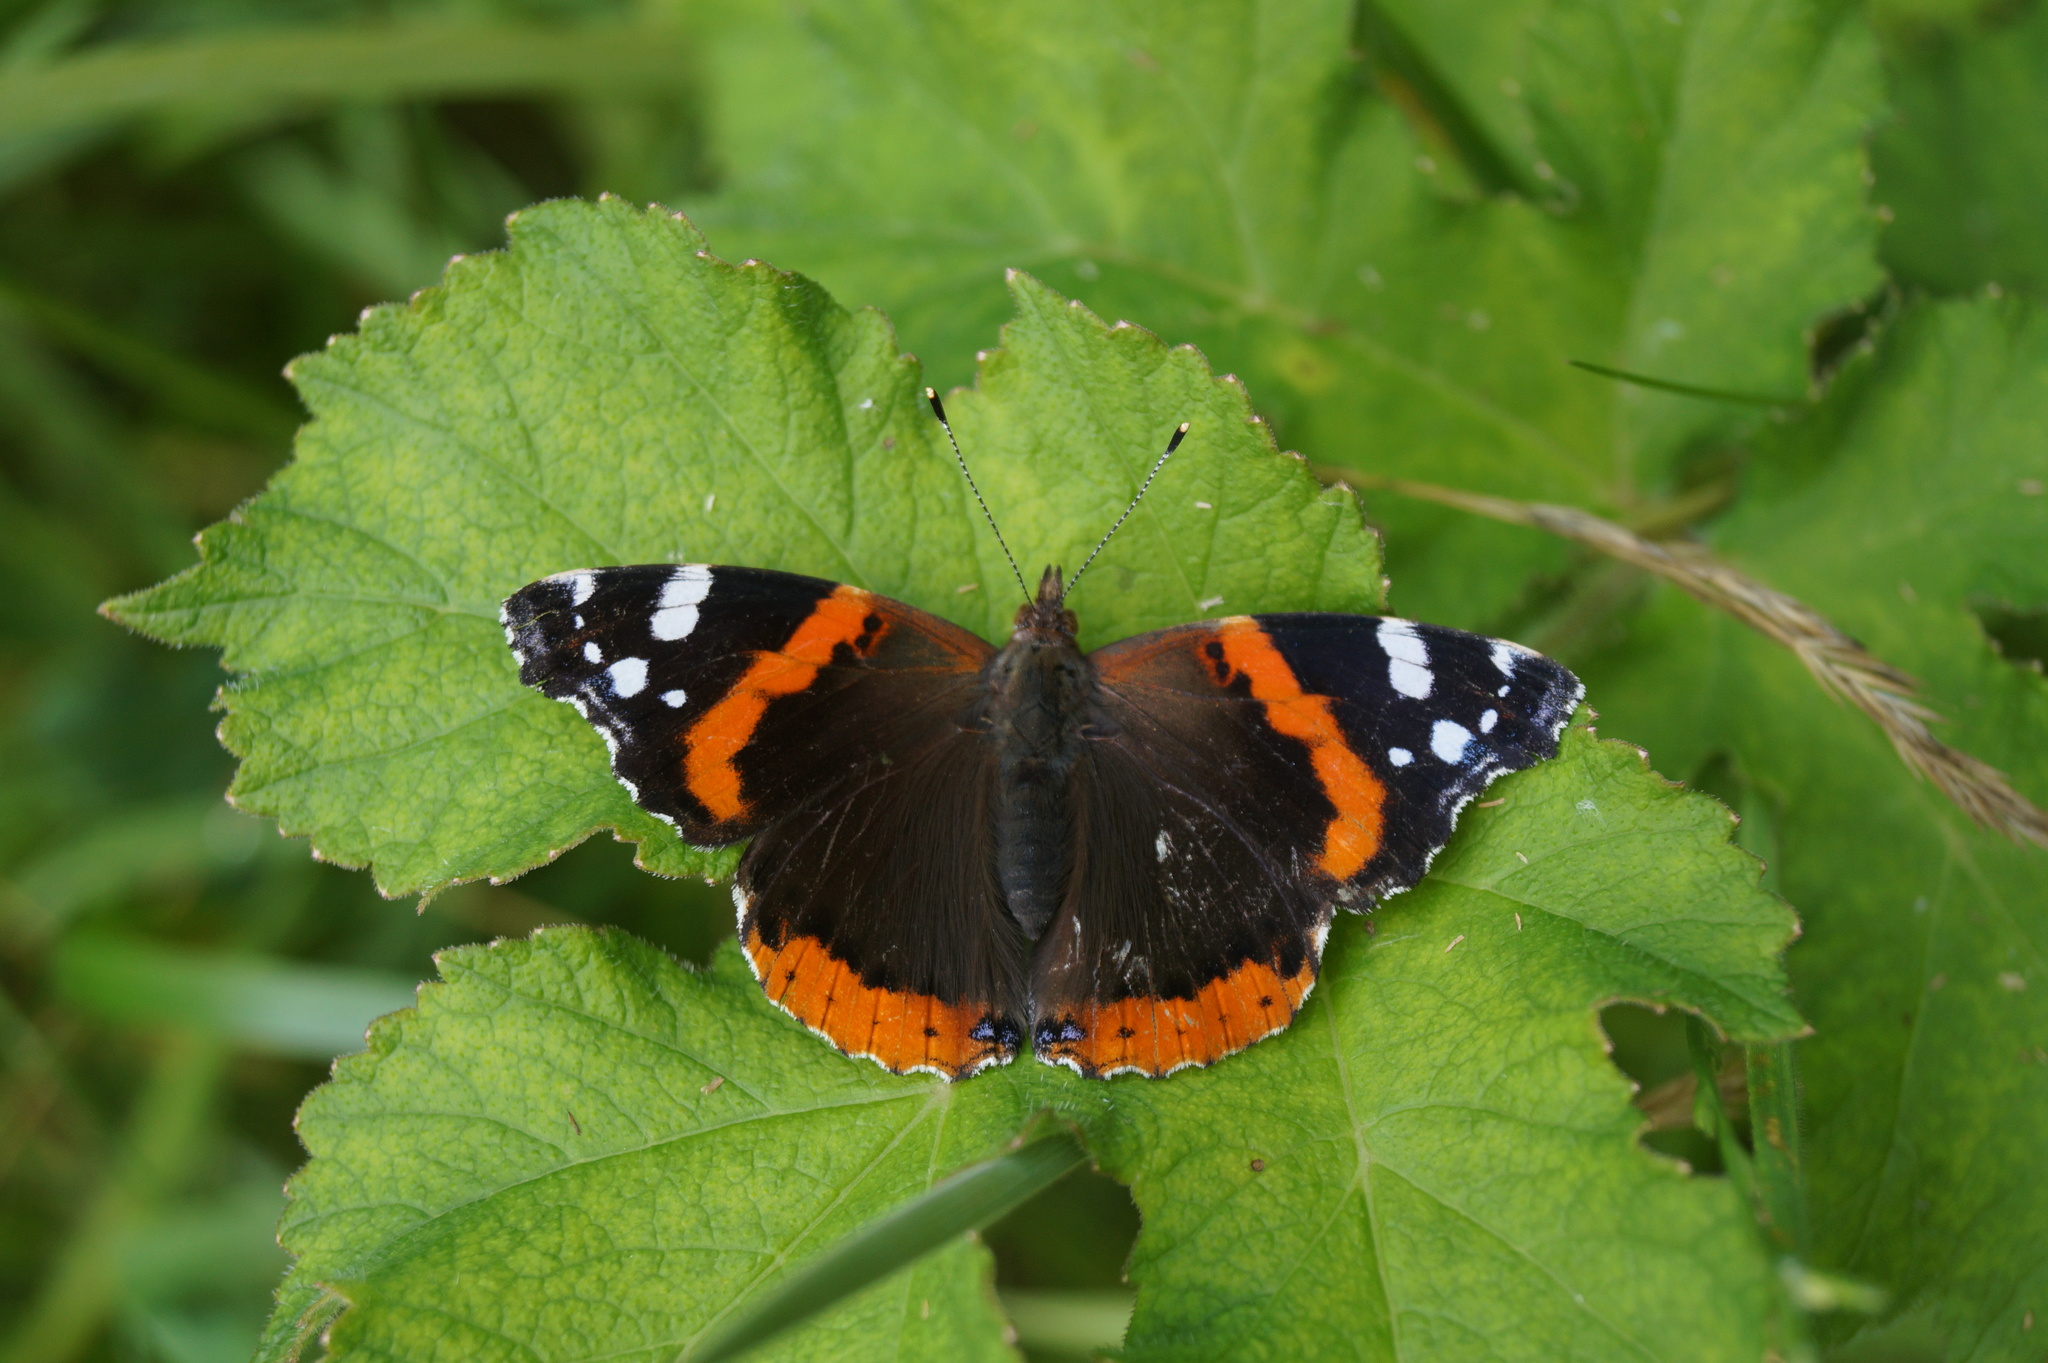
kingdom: Animalia
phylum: Arthropoda
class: Insecta
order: Lepidoptera
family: Nymphalidae
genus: Vanessa
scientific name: Vanessa atalanta
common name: Red admiral
